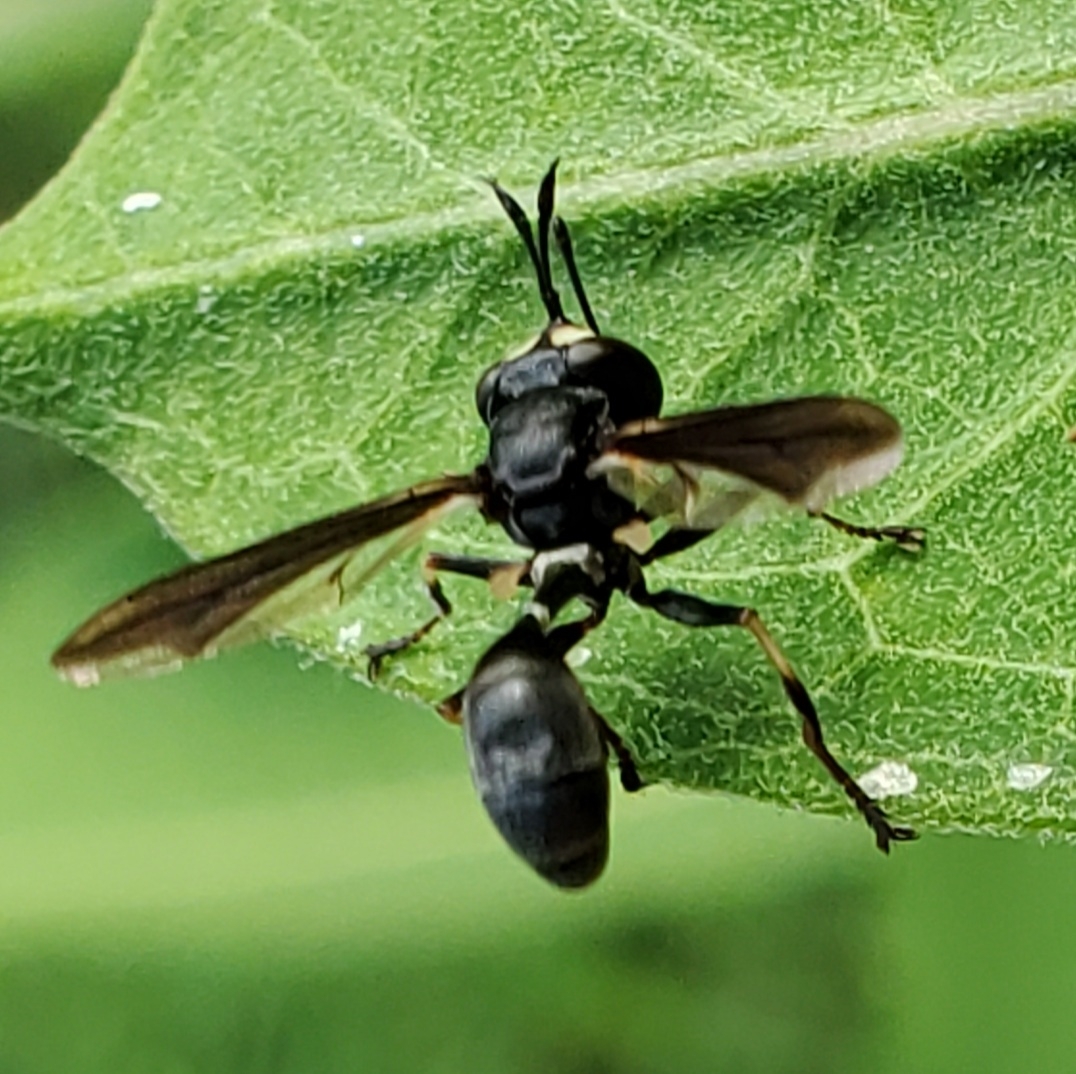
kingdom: Animalia
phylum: Arthropoda
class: Insecta
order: Diptera
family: Conopidae
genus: Physocephala
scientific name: Physocephala tibialis
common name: Common eastern physocephala
